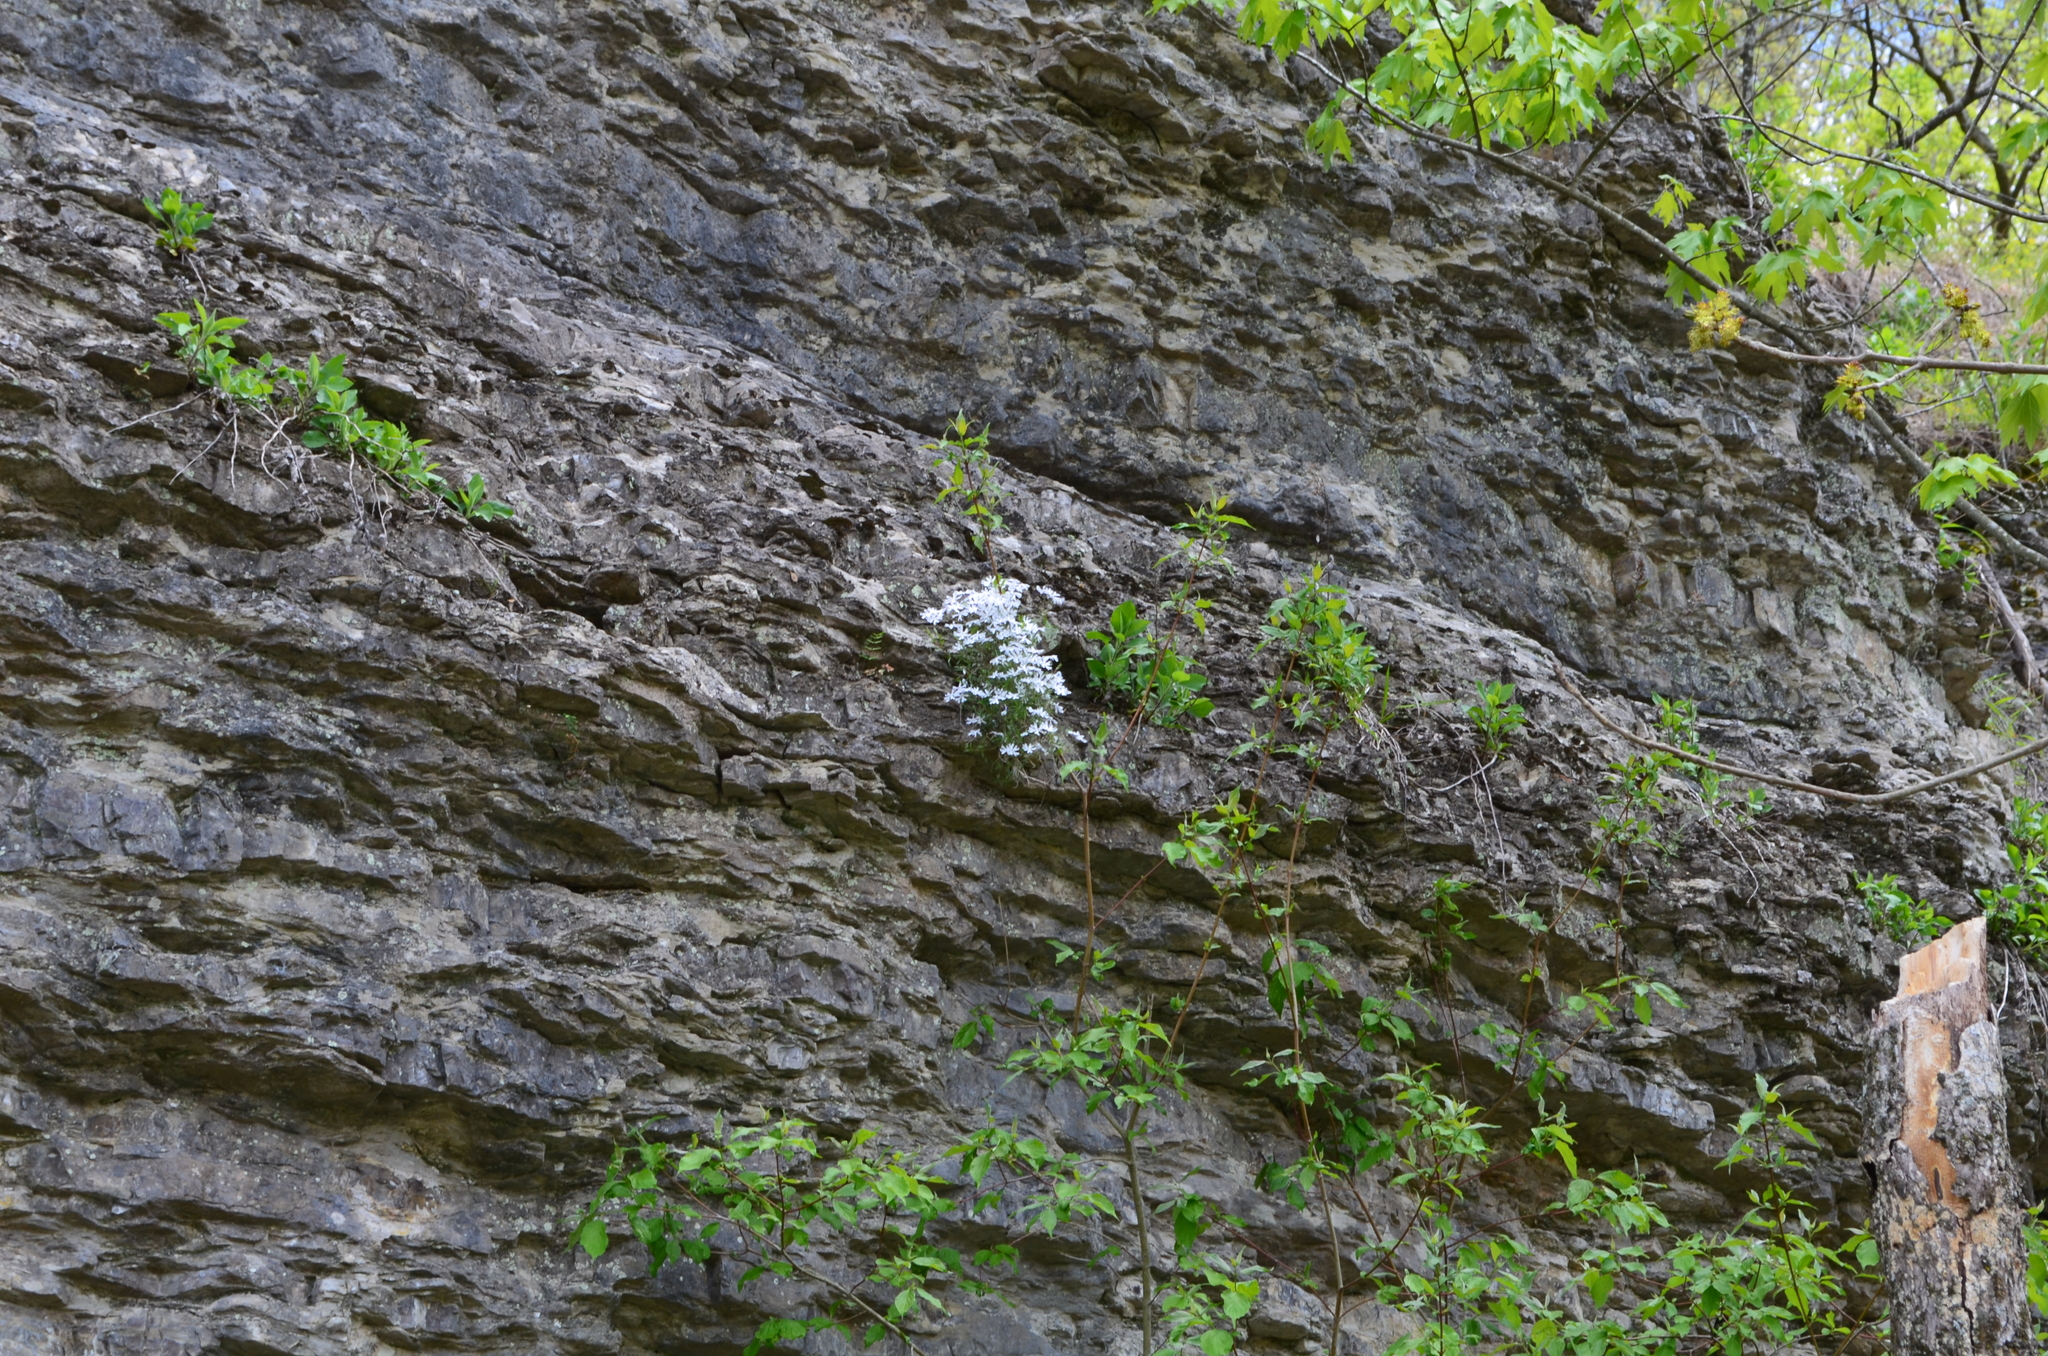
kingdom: Plantae
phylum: Tracheophyta
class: Magnoliopsida
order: Ericales
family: Polemoniaceae
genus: Phlox
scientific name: Phlox bifida
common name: Sand phlox
